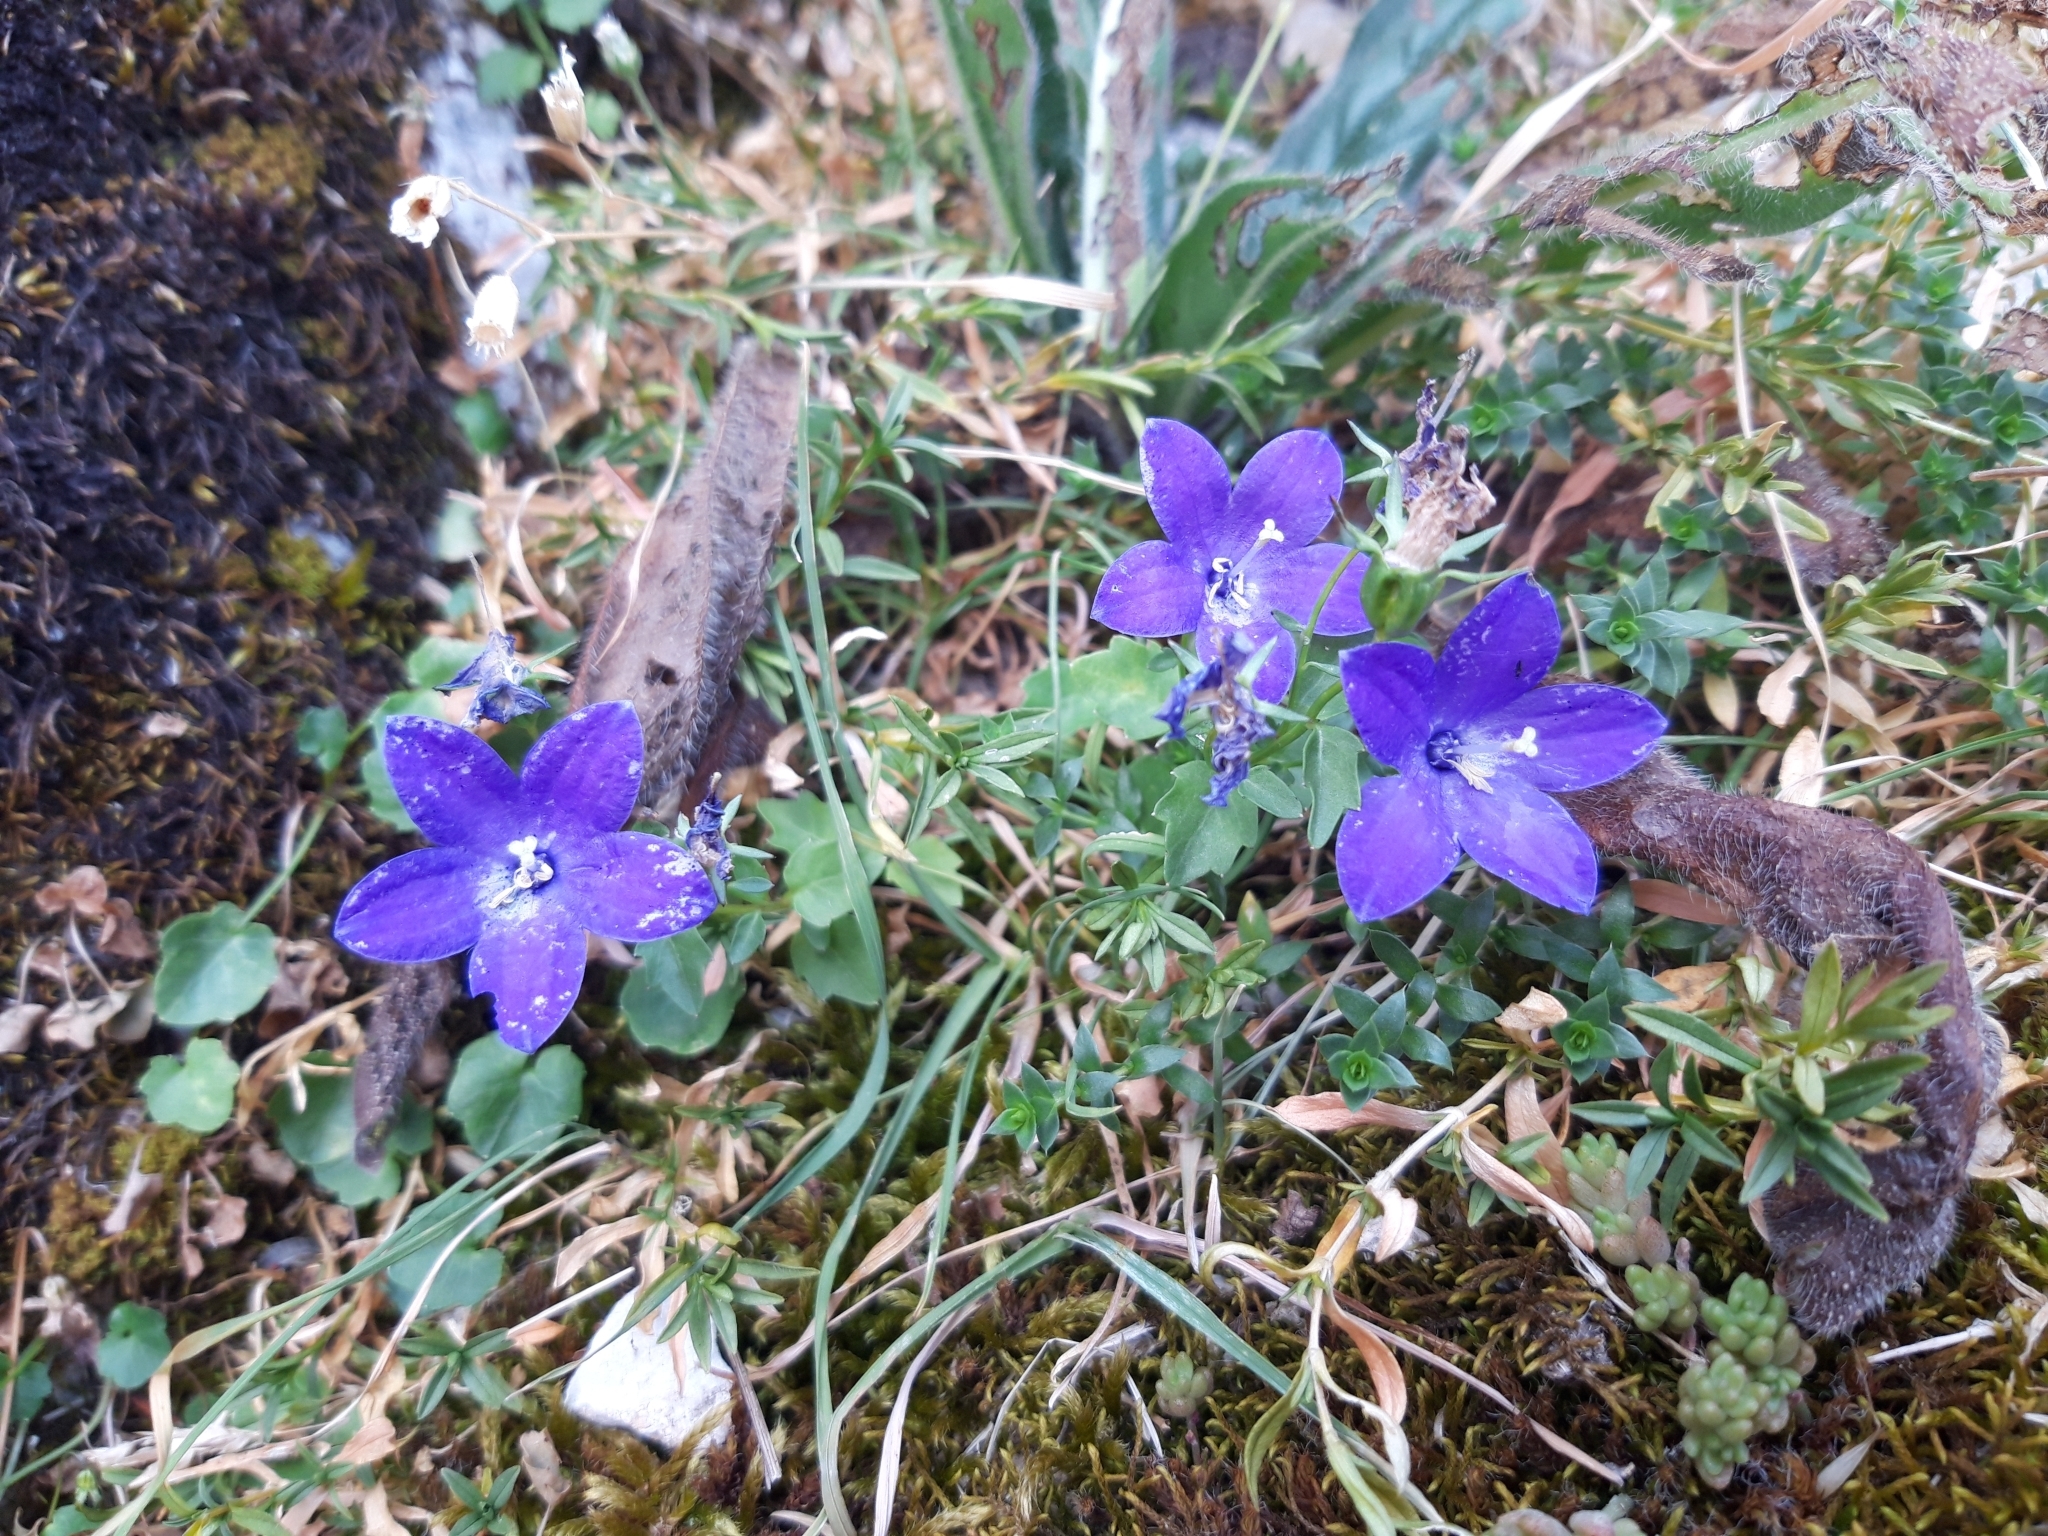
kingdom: Plantae
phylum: Tracheophyta
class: Magnoliopsida
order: Asterales
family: Campanulaceae
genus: Campanula
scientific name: Campanula arvatica
